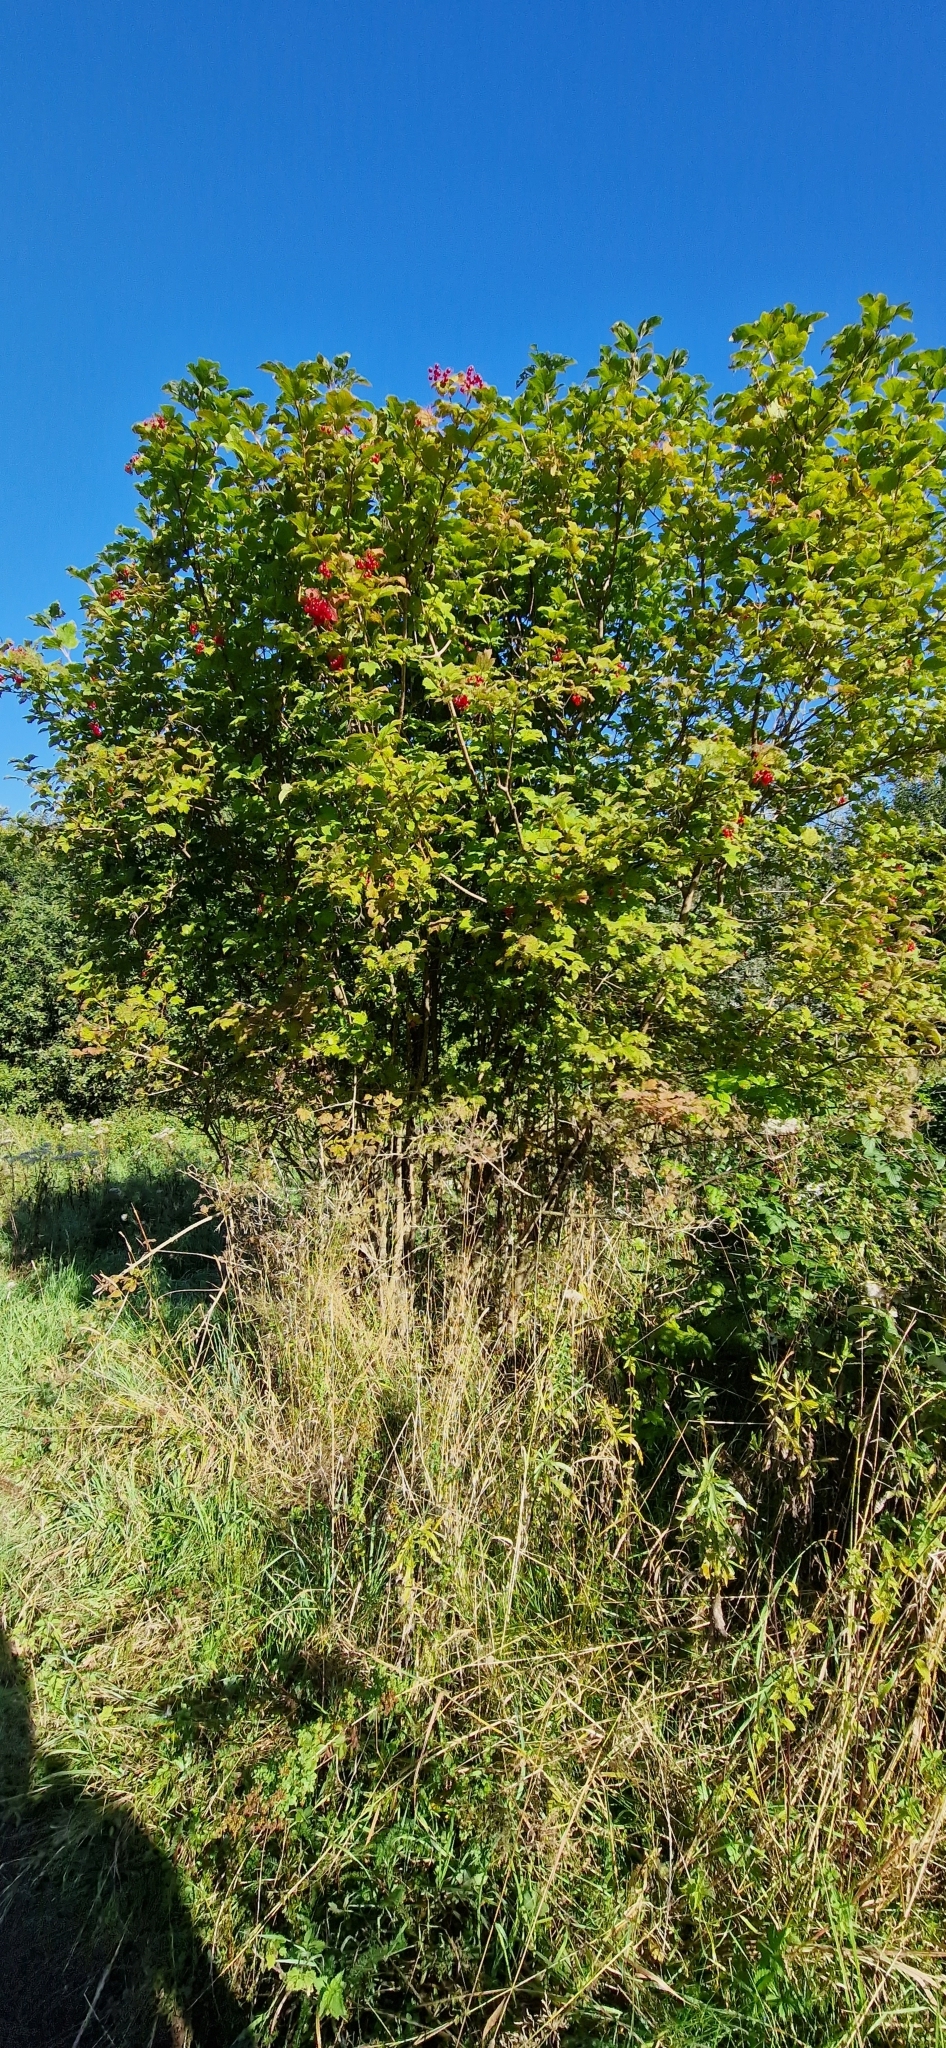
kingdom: Plantae
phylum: Tracheophyta
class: Magnoliopsida
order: Dipsacales
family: Viburnaceae
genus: Viburnum
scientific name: Viburnum opulus
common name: Guelder-rose
